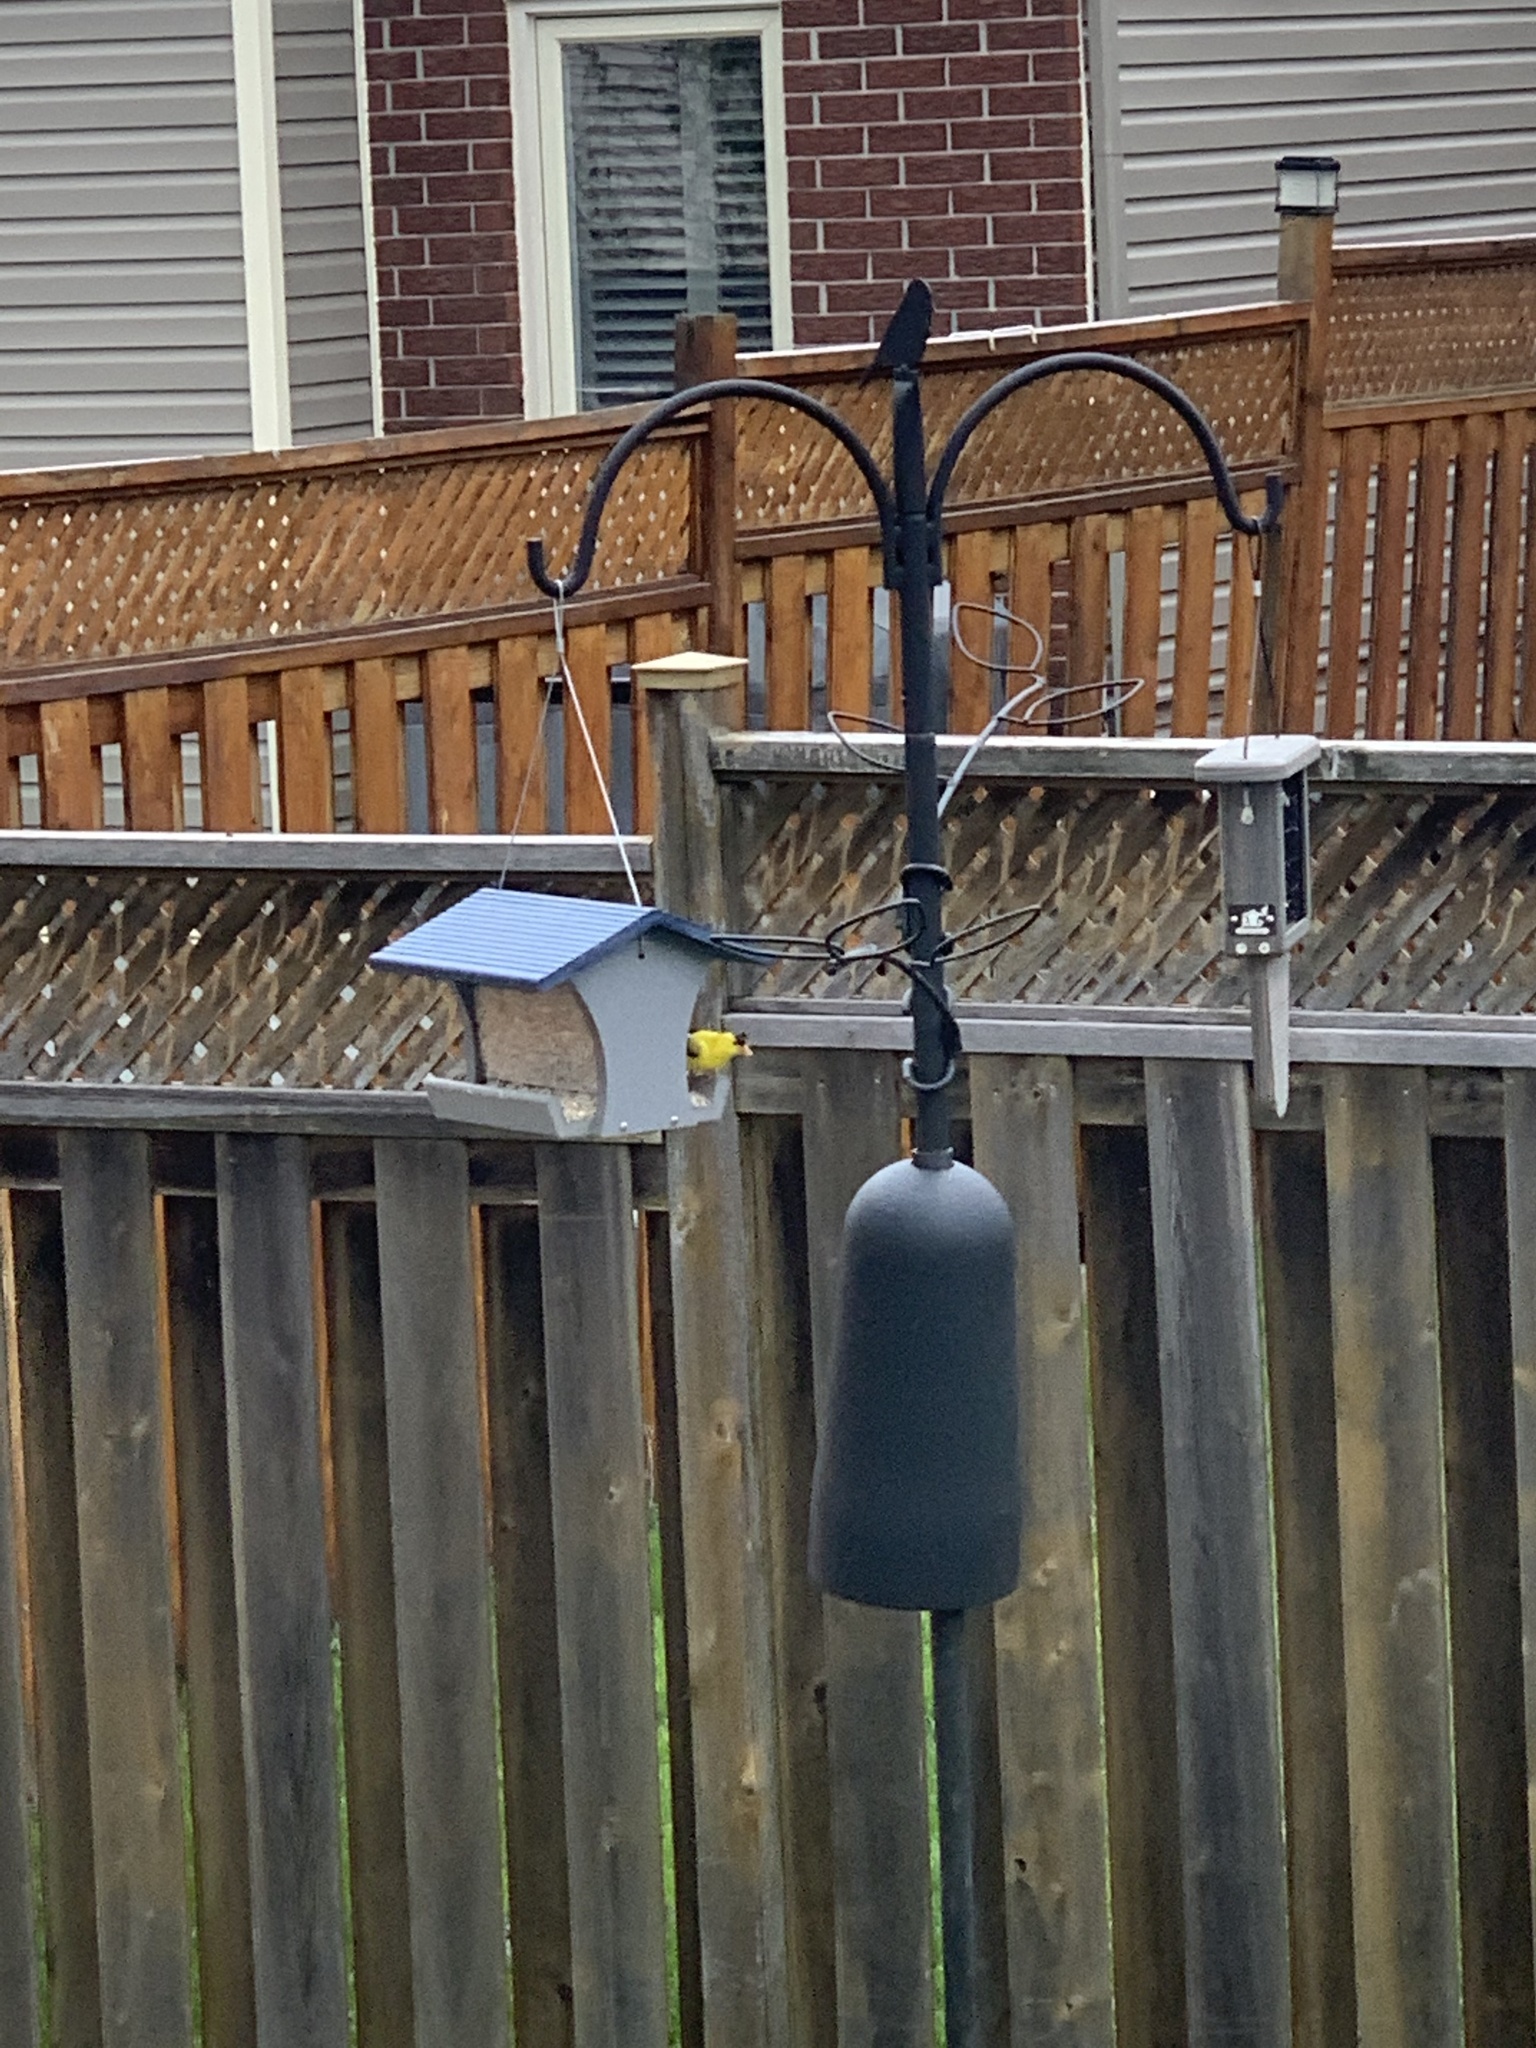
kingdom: Animalia
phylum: Chordata
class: Aves
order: Passeriformes
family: Fringillidae
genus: Spinus
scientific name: Spinus tristis
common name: American goldfinch
